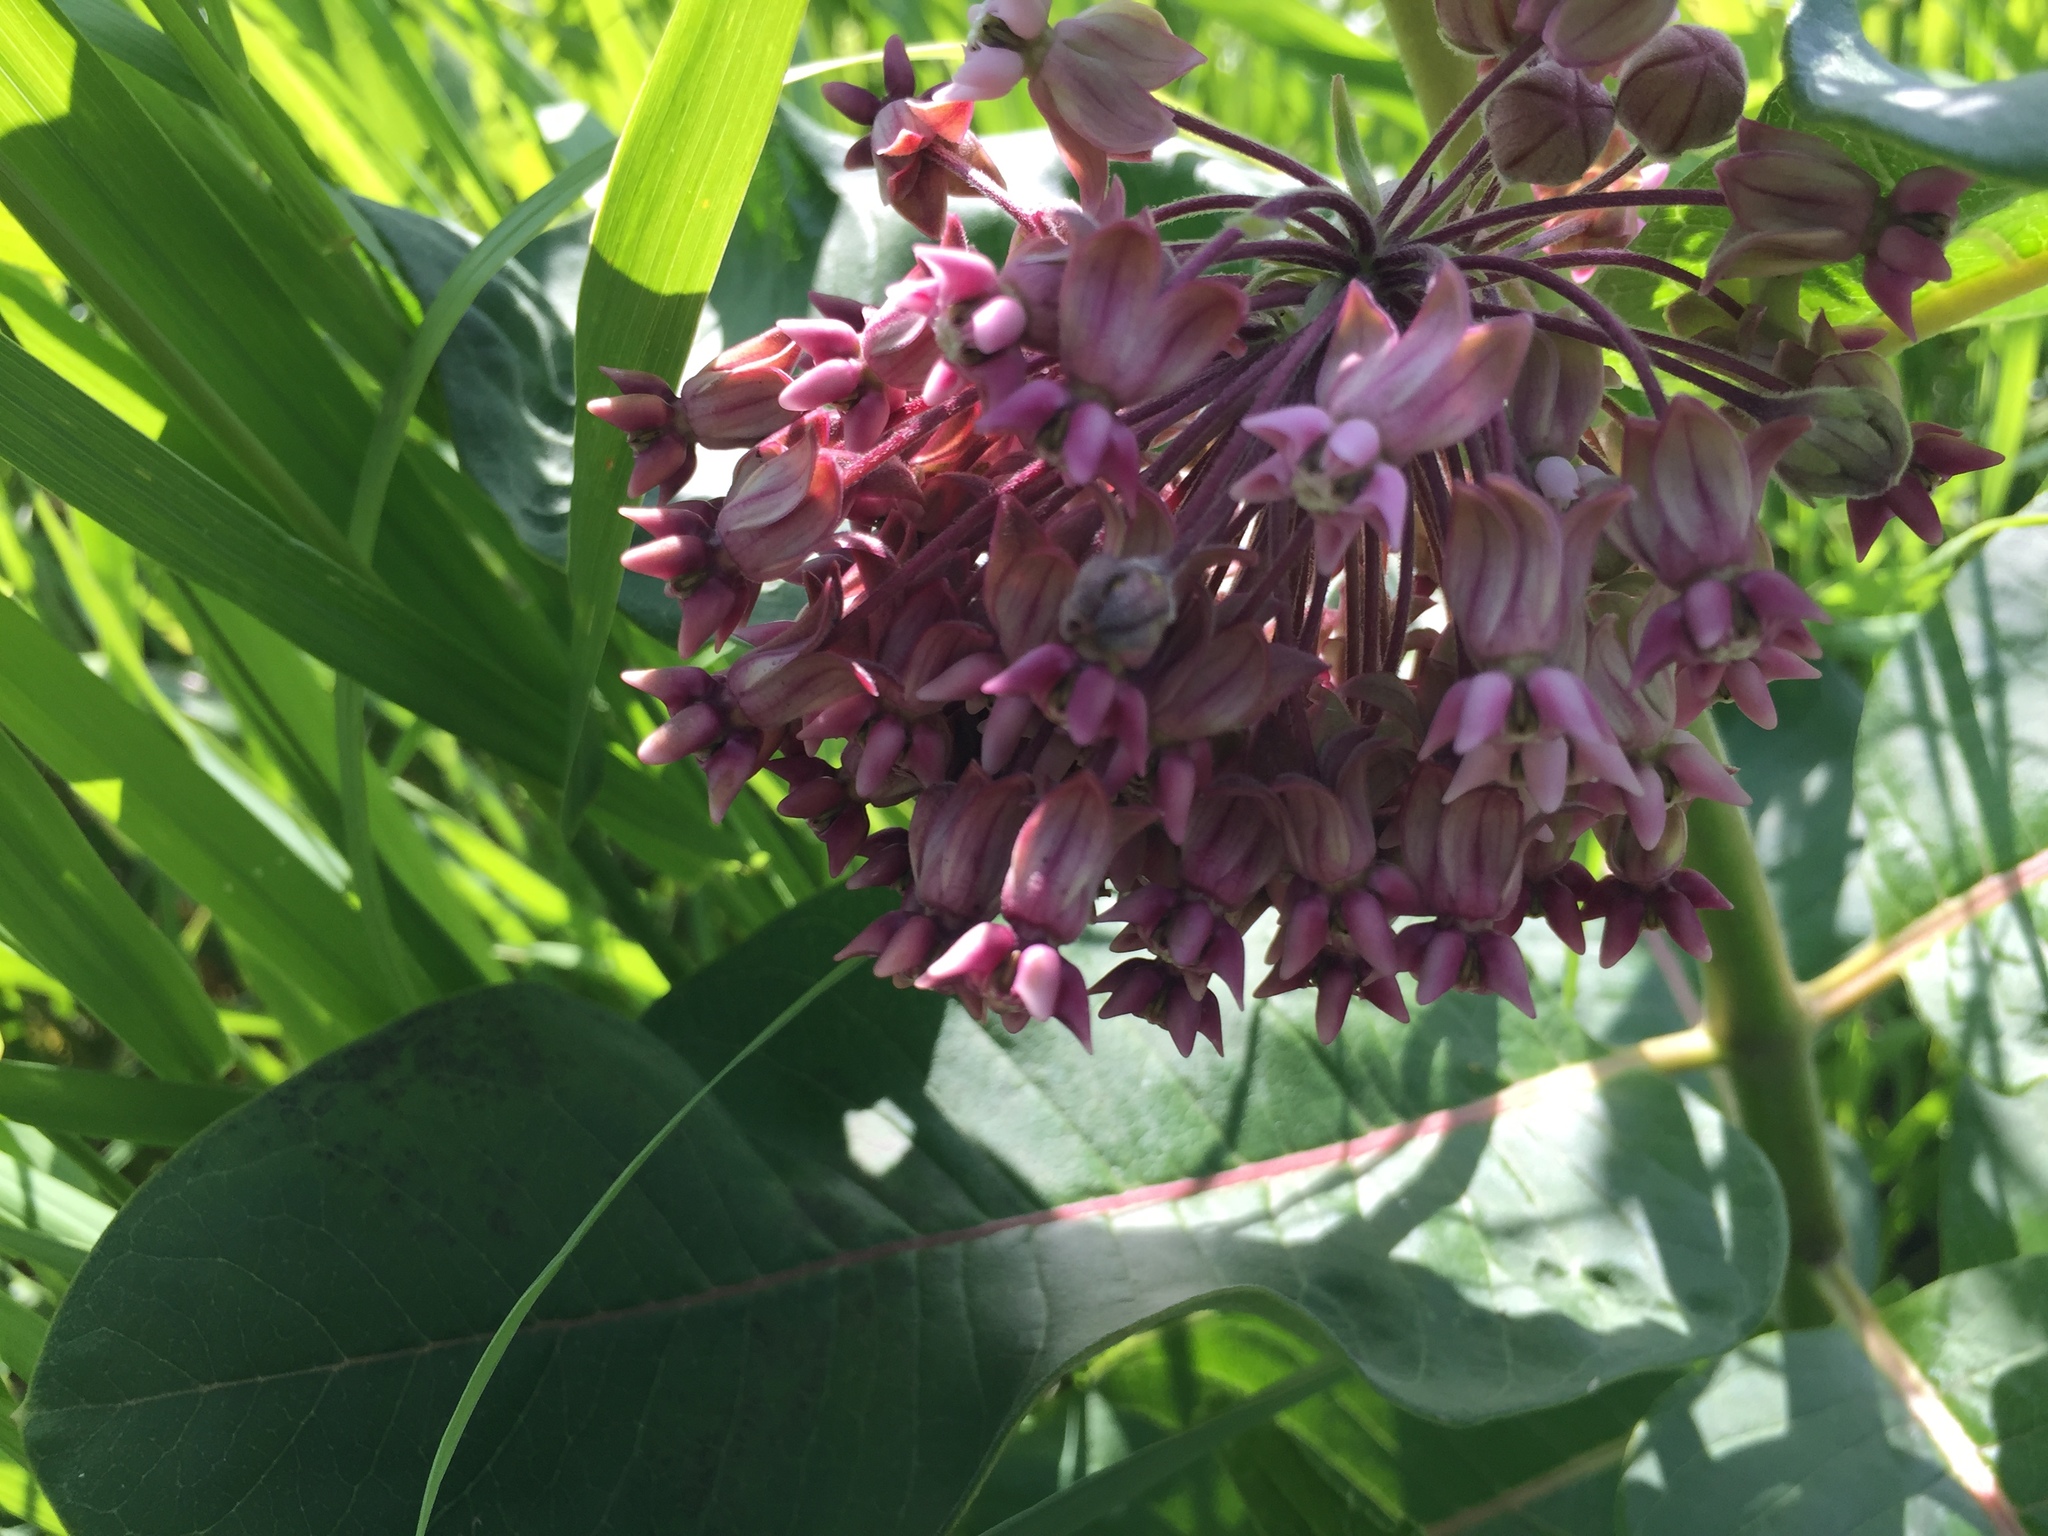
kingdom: Plantae
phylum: Tracheophyta
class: Magnoliopsida
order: Gentianales
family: Apocynaceae
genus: Asclepias
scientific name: Asclepias syriaca
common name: Common milkweed
